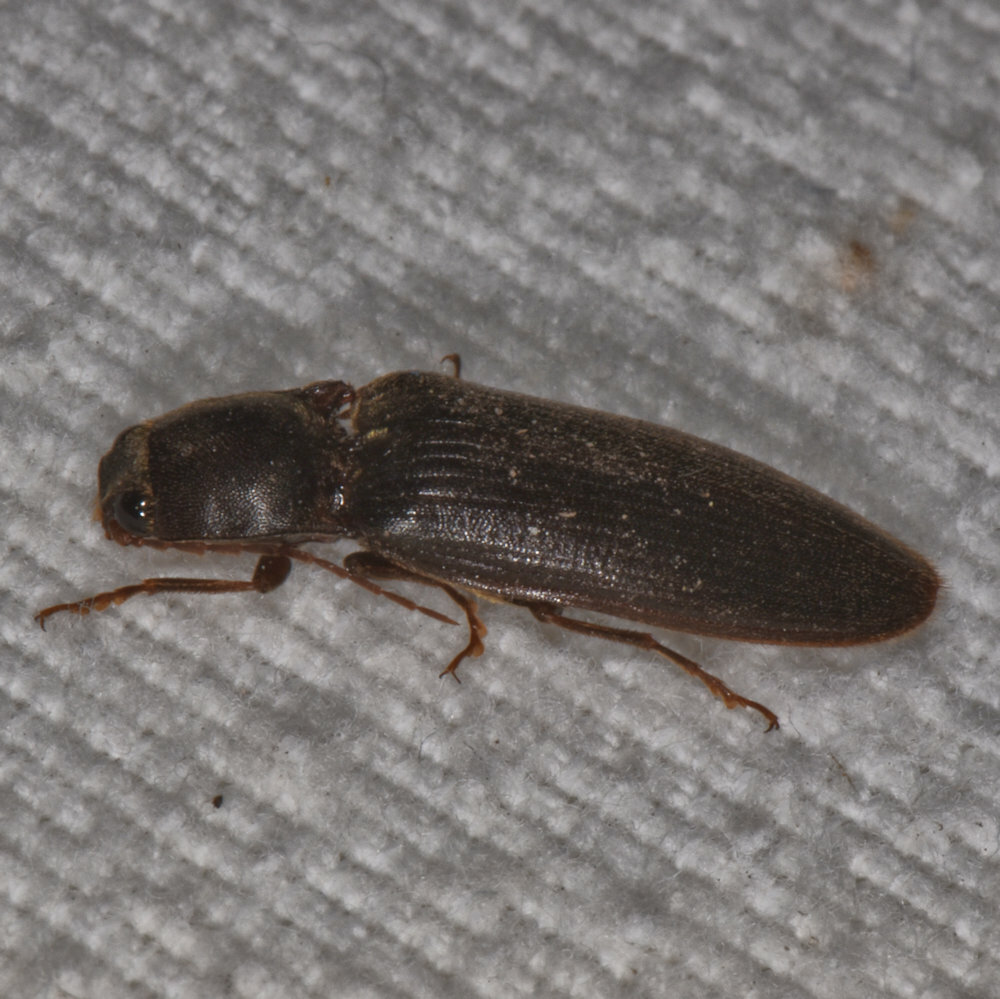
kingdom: Animalia
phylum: Arthropoda
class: Insecta
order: Coleoptera
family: Elateridae
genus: Hemicrepidius
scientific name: Hemicrepidius
